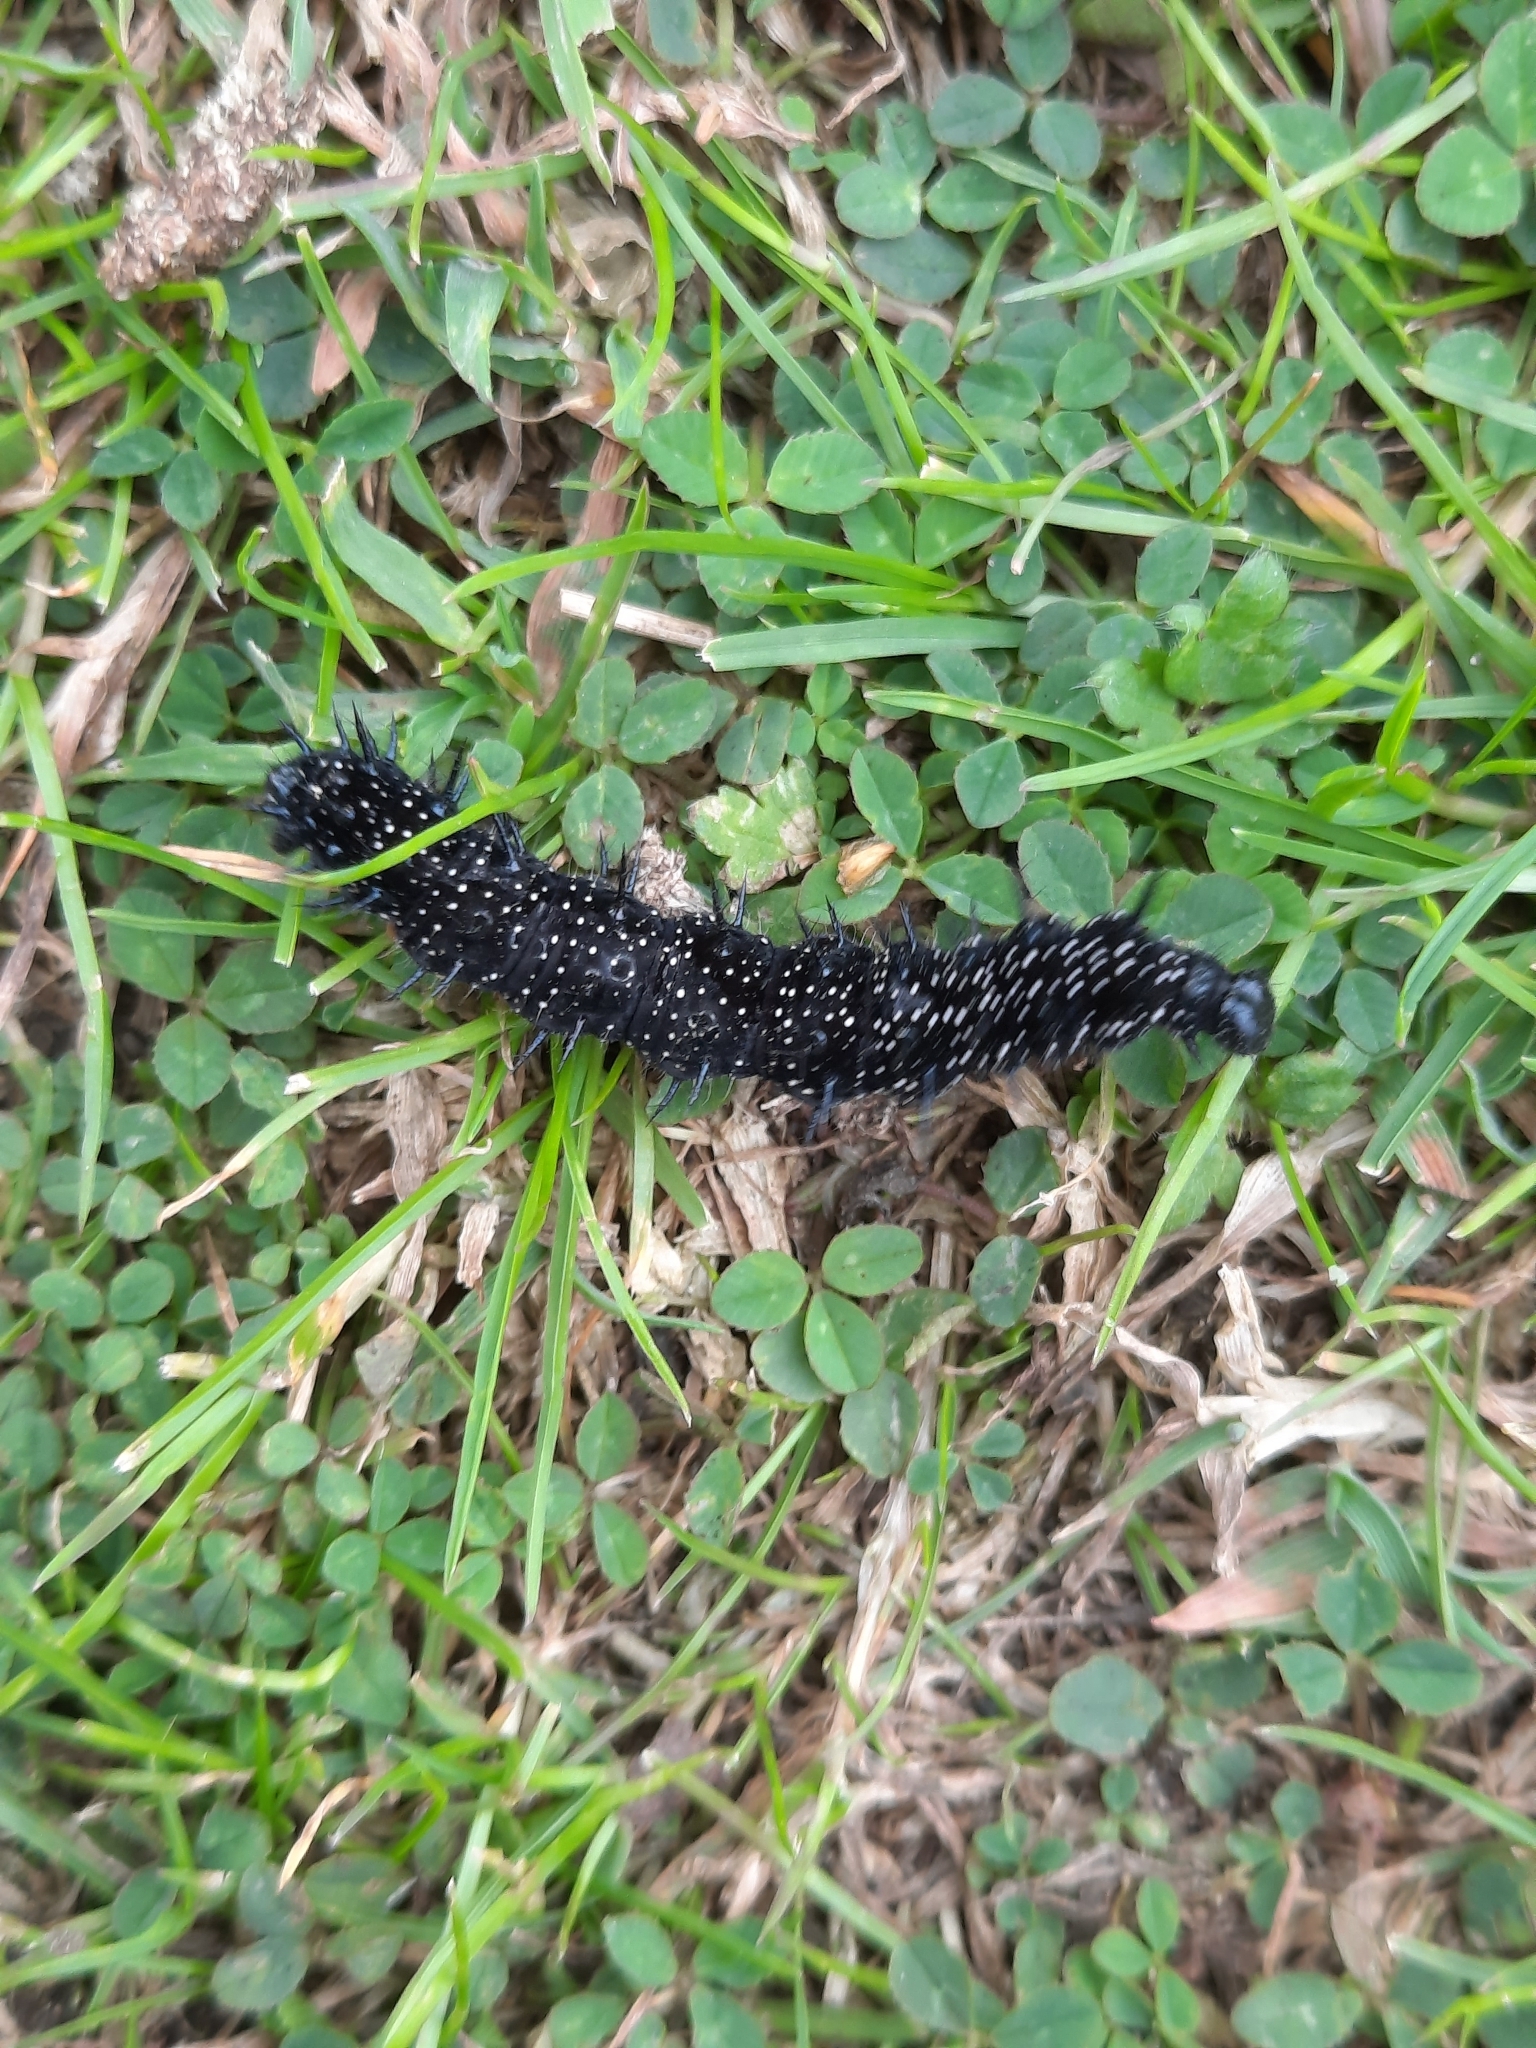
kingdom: Animalia
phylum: Arthropoda
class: Insecta
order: Lepidoptera
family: Nymphalidae
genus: Aglais
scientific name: Aglais io
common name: Peacock
